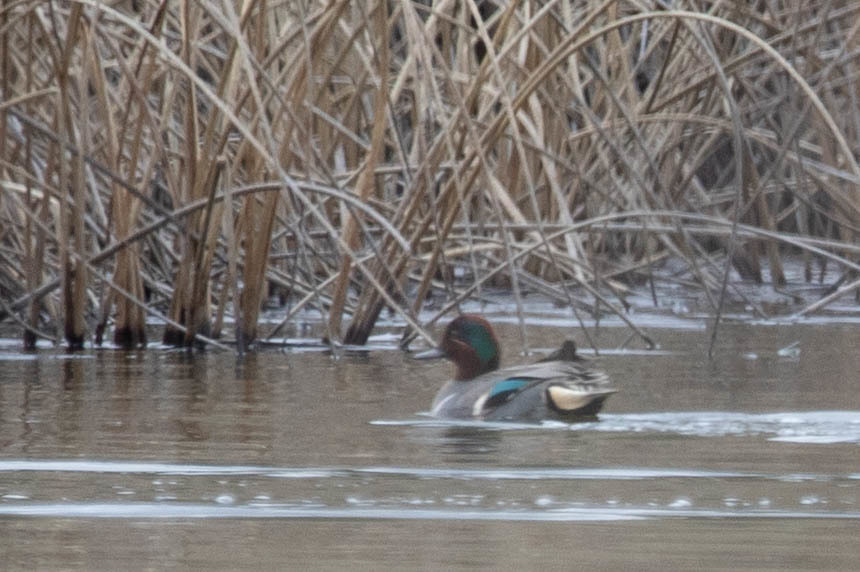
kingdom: Animalia
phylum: Chordata
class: Aves
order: Anseriformes
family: Anatidae
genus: Anas
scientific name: Anas carolinensis
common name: Green-winged teal
